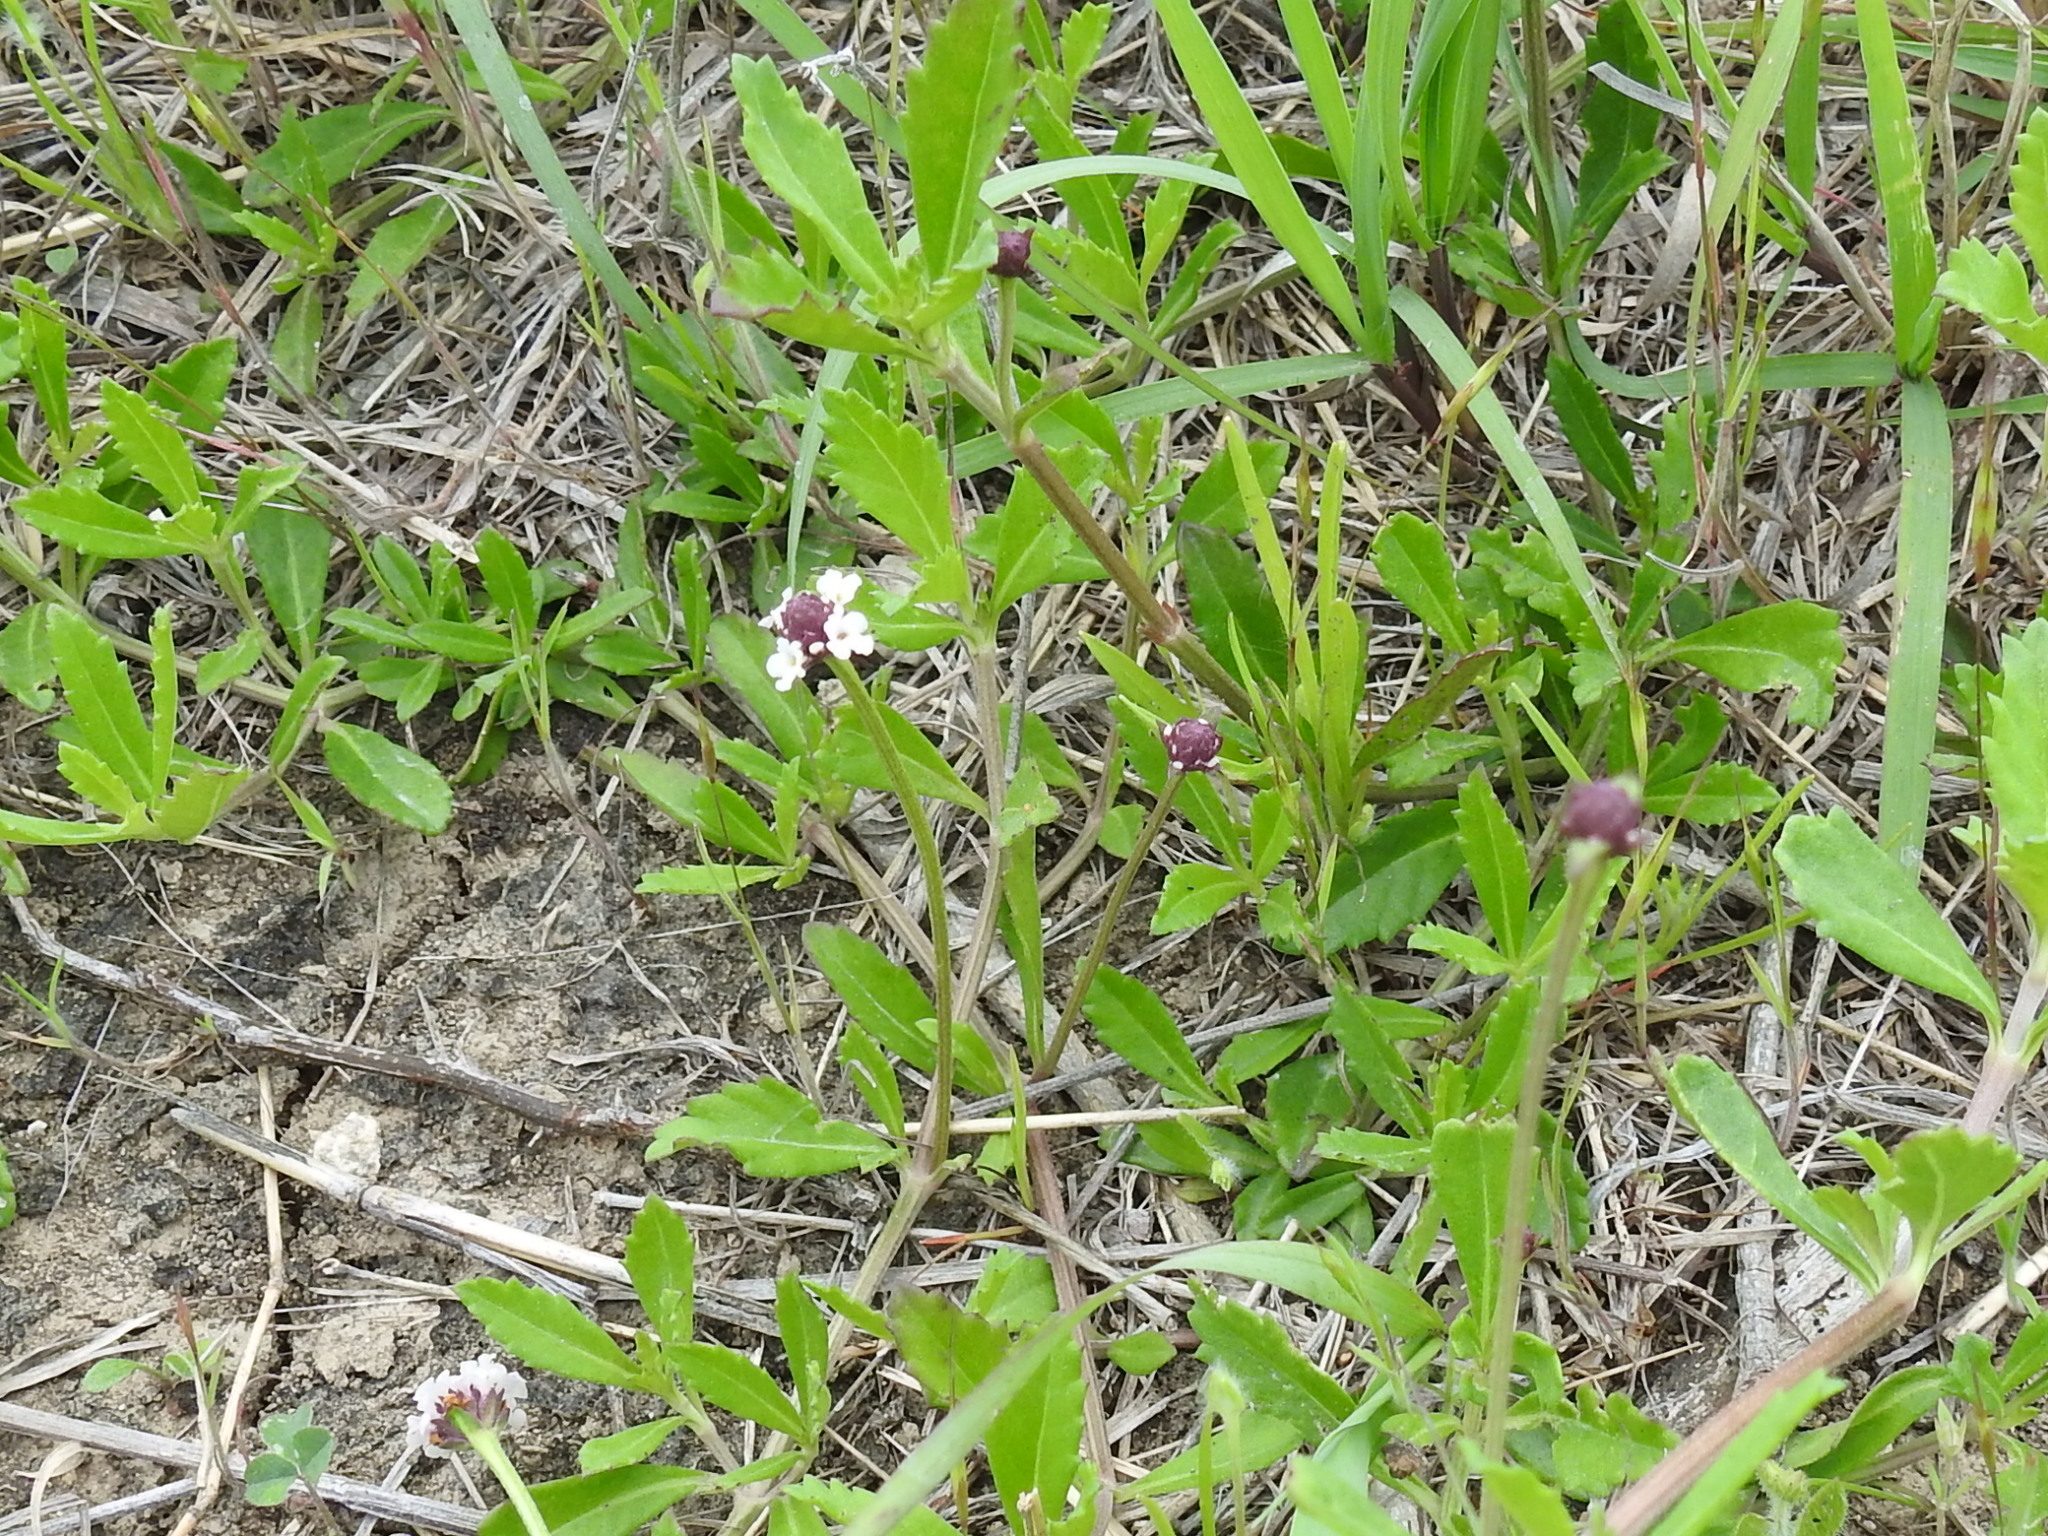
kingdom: Plantae
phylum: Tracheophyta
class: Magnoliopsida
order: Lamiales
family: Verbenaceae
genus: Phyla
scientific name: Phyla nodiflora
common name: Frogfruit
